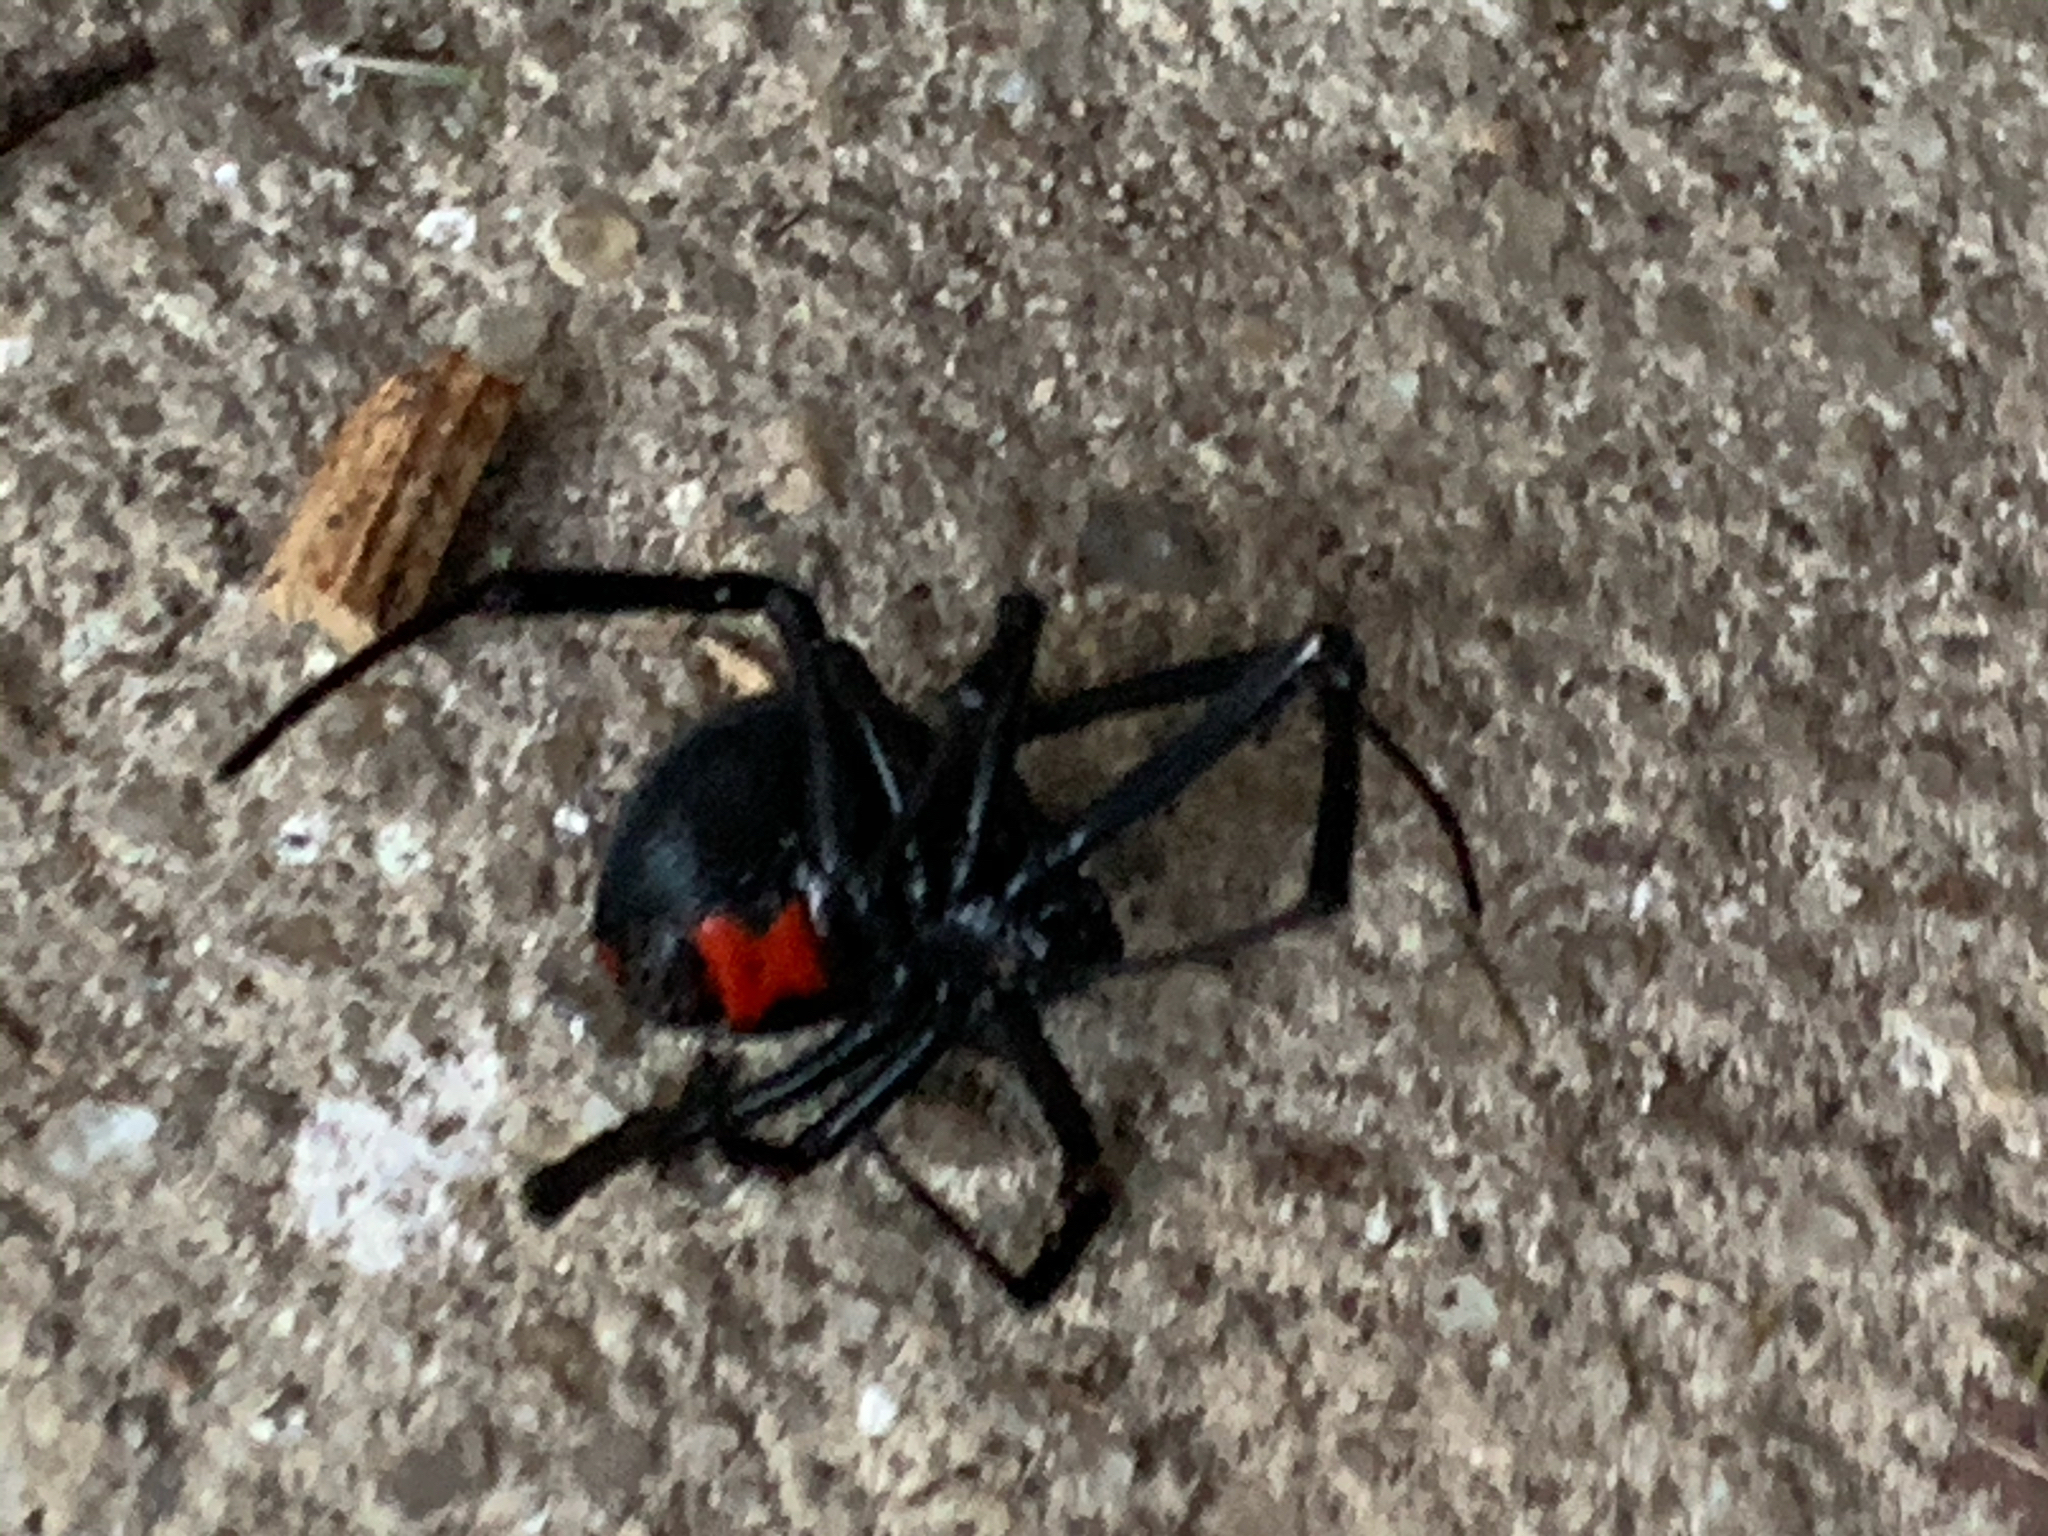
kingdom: Animalia
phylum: Arthropoda
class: Arachnida
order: Araneae
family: Theridiidae
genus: Latrodectus
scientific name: Latrodectus mactans
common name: Cobweb spiders
